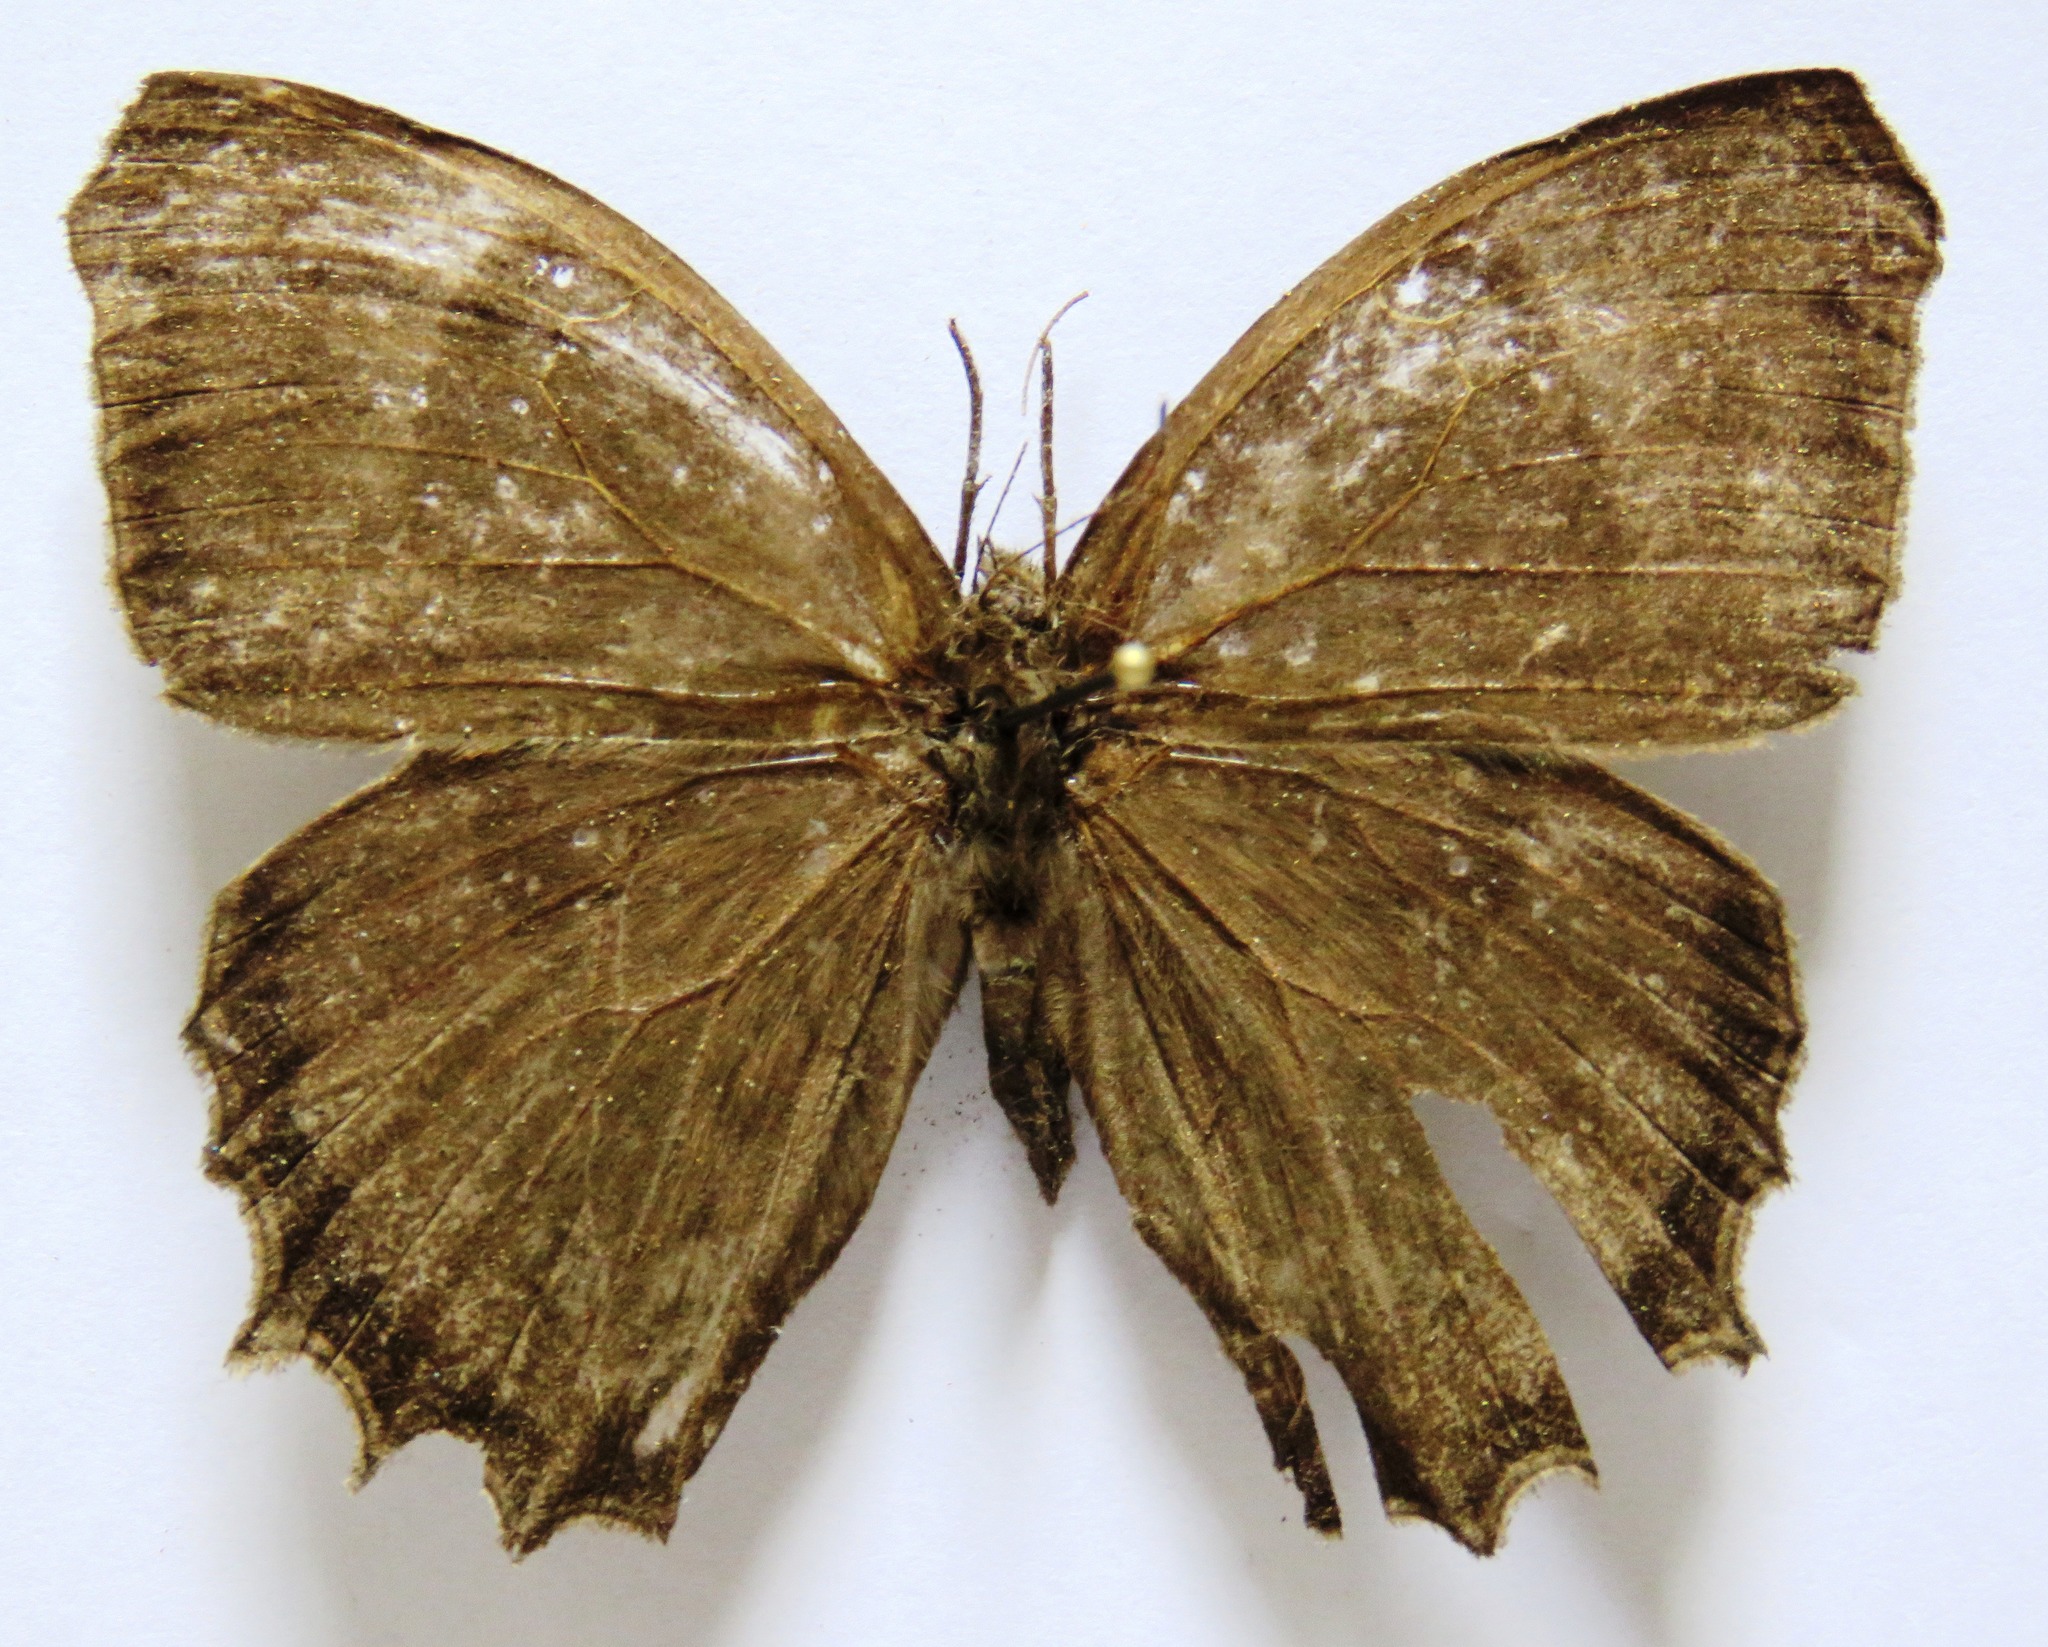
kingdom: Animalia
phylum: Arthropoda
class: Insecta
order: Lepidoptera
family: Nymphalidae
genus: Taygetis
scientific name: Taygetis inconspicua
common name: Inconspicuous satyr
